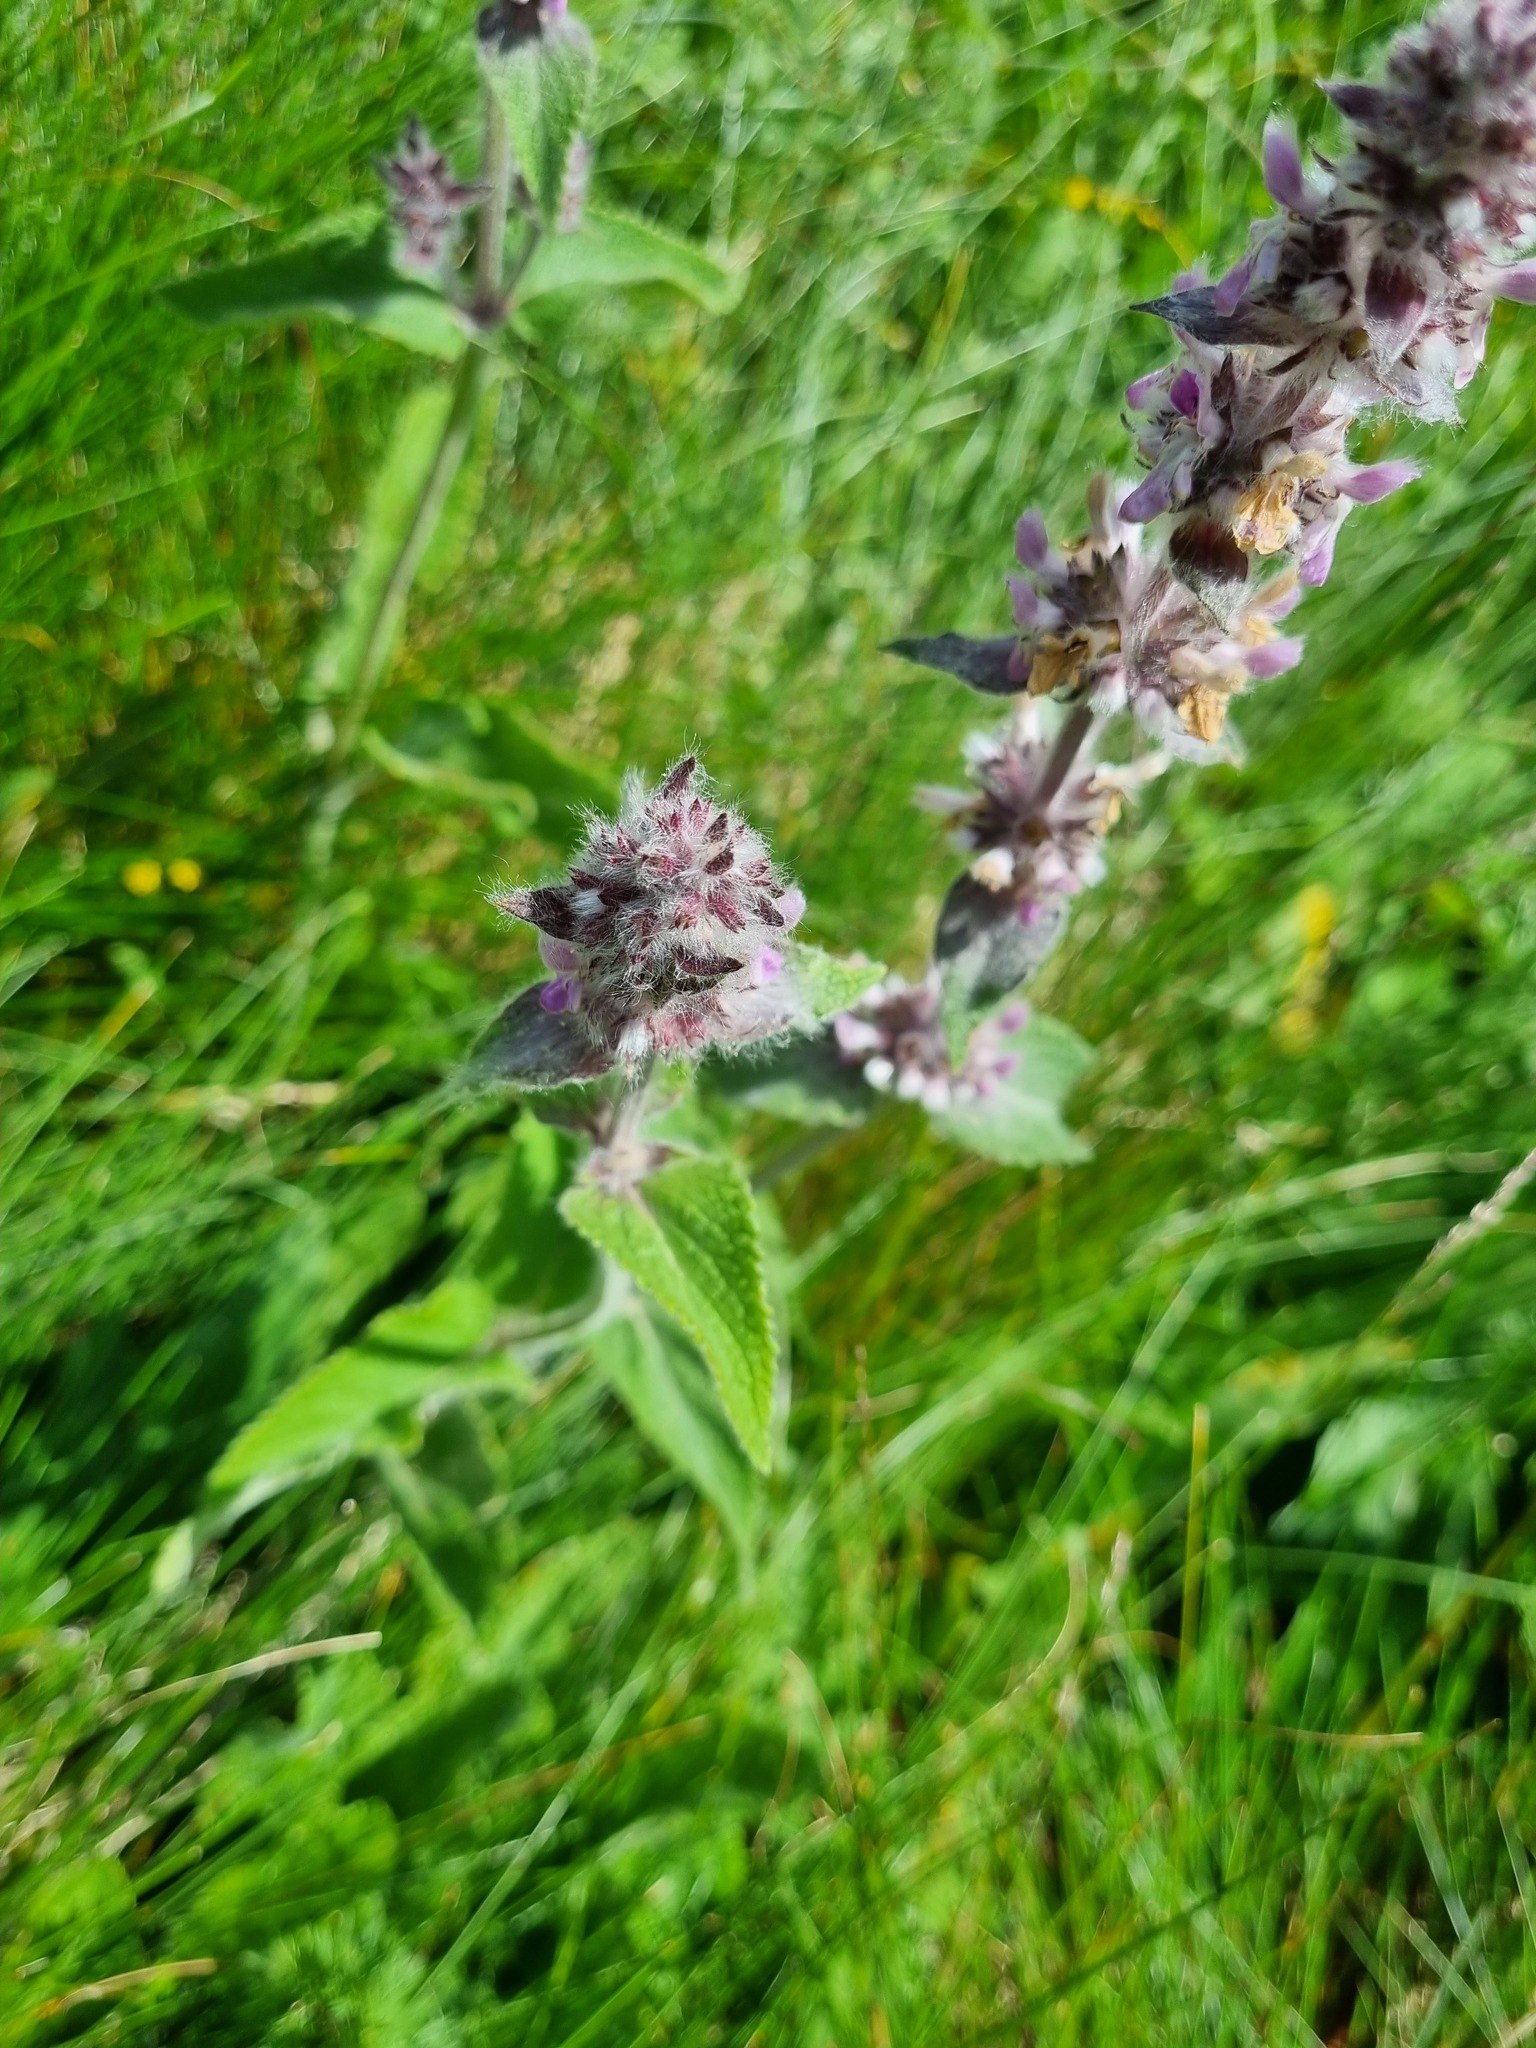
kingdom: Plantae
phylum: Tracheophyta
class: Magnoliopsida
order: Lamiales
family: Lamiaceae
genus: Stachys
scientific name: Stachys germanica
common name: Downy woundwort
